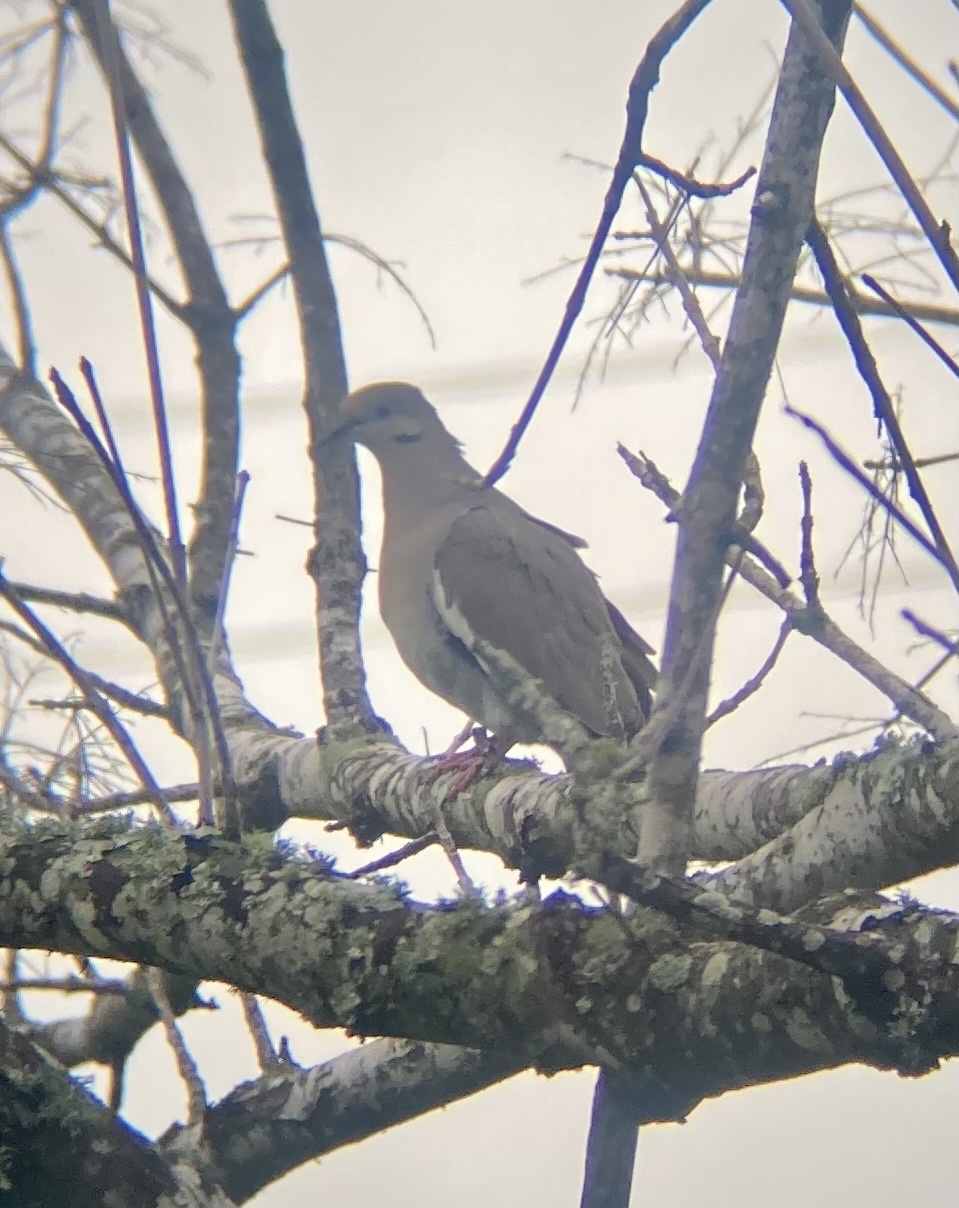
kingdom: Animalia
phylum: Chordata
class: Aves
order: Columbiformes
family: Columbidae
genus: Zenaida
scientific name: Zenaida asiatica
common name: White-winged dove
